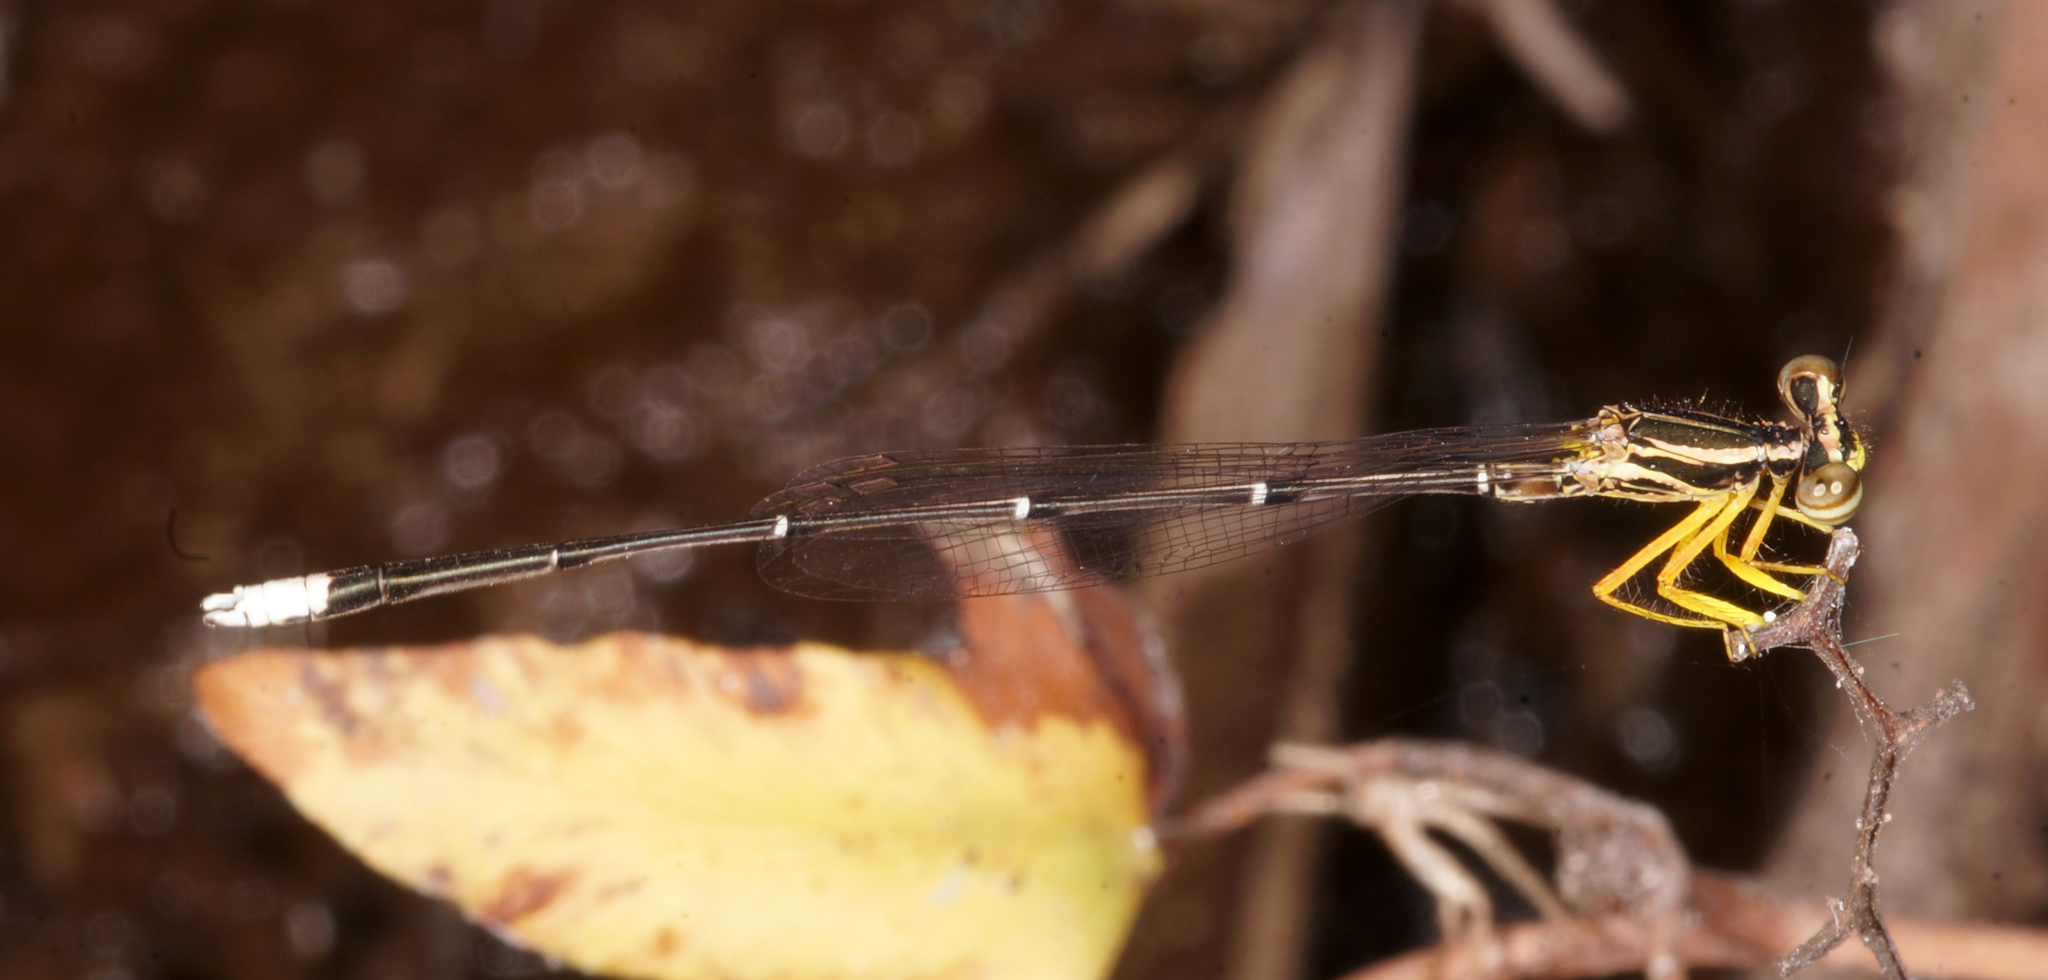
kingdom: Animalia
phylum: Arthropoda
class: Insecta
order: Odonata
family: Platycnemididae
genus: Copera
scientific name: Copera marginipes
